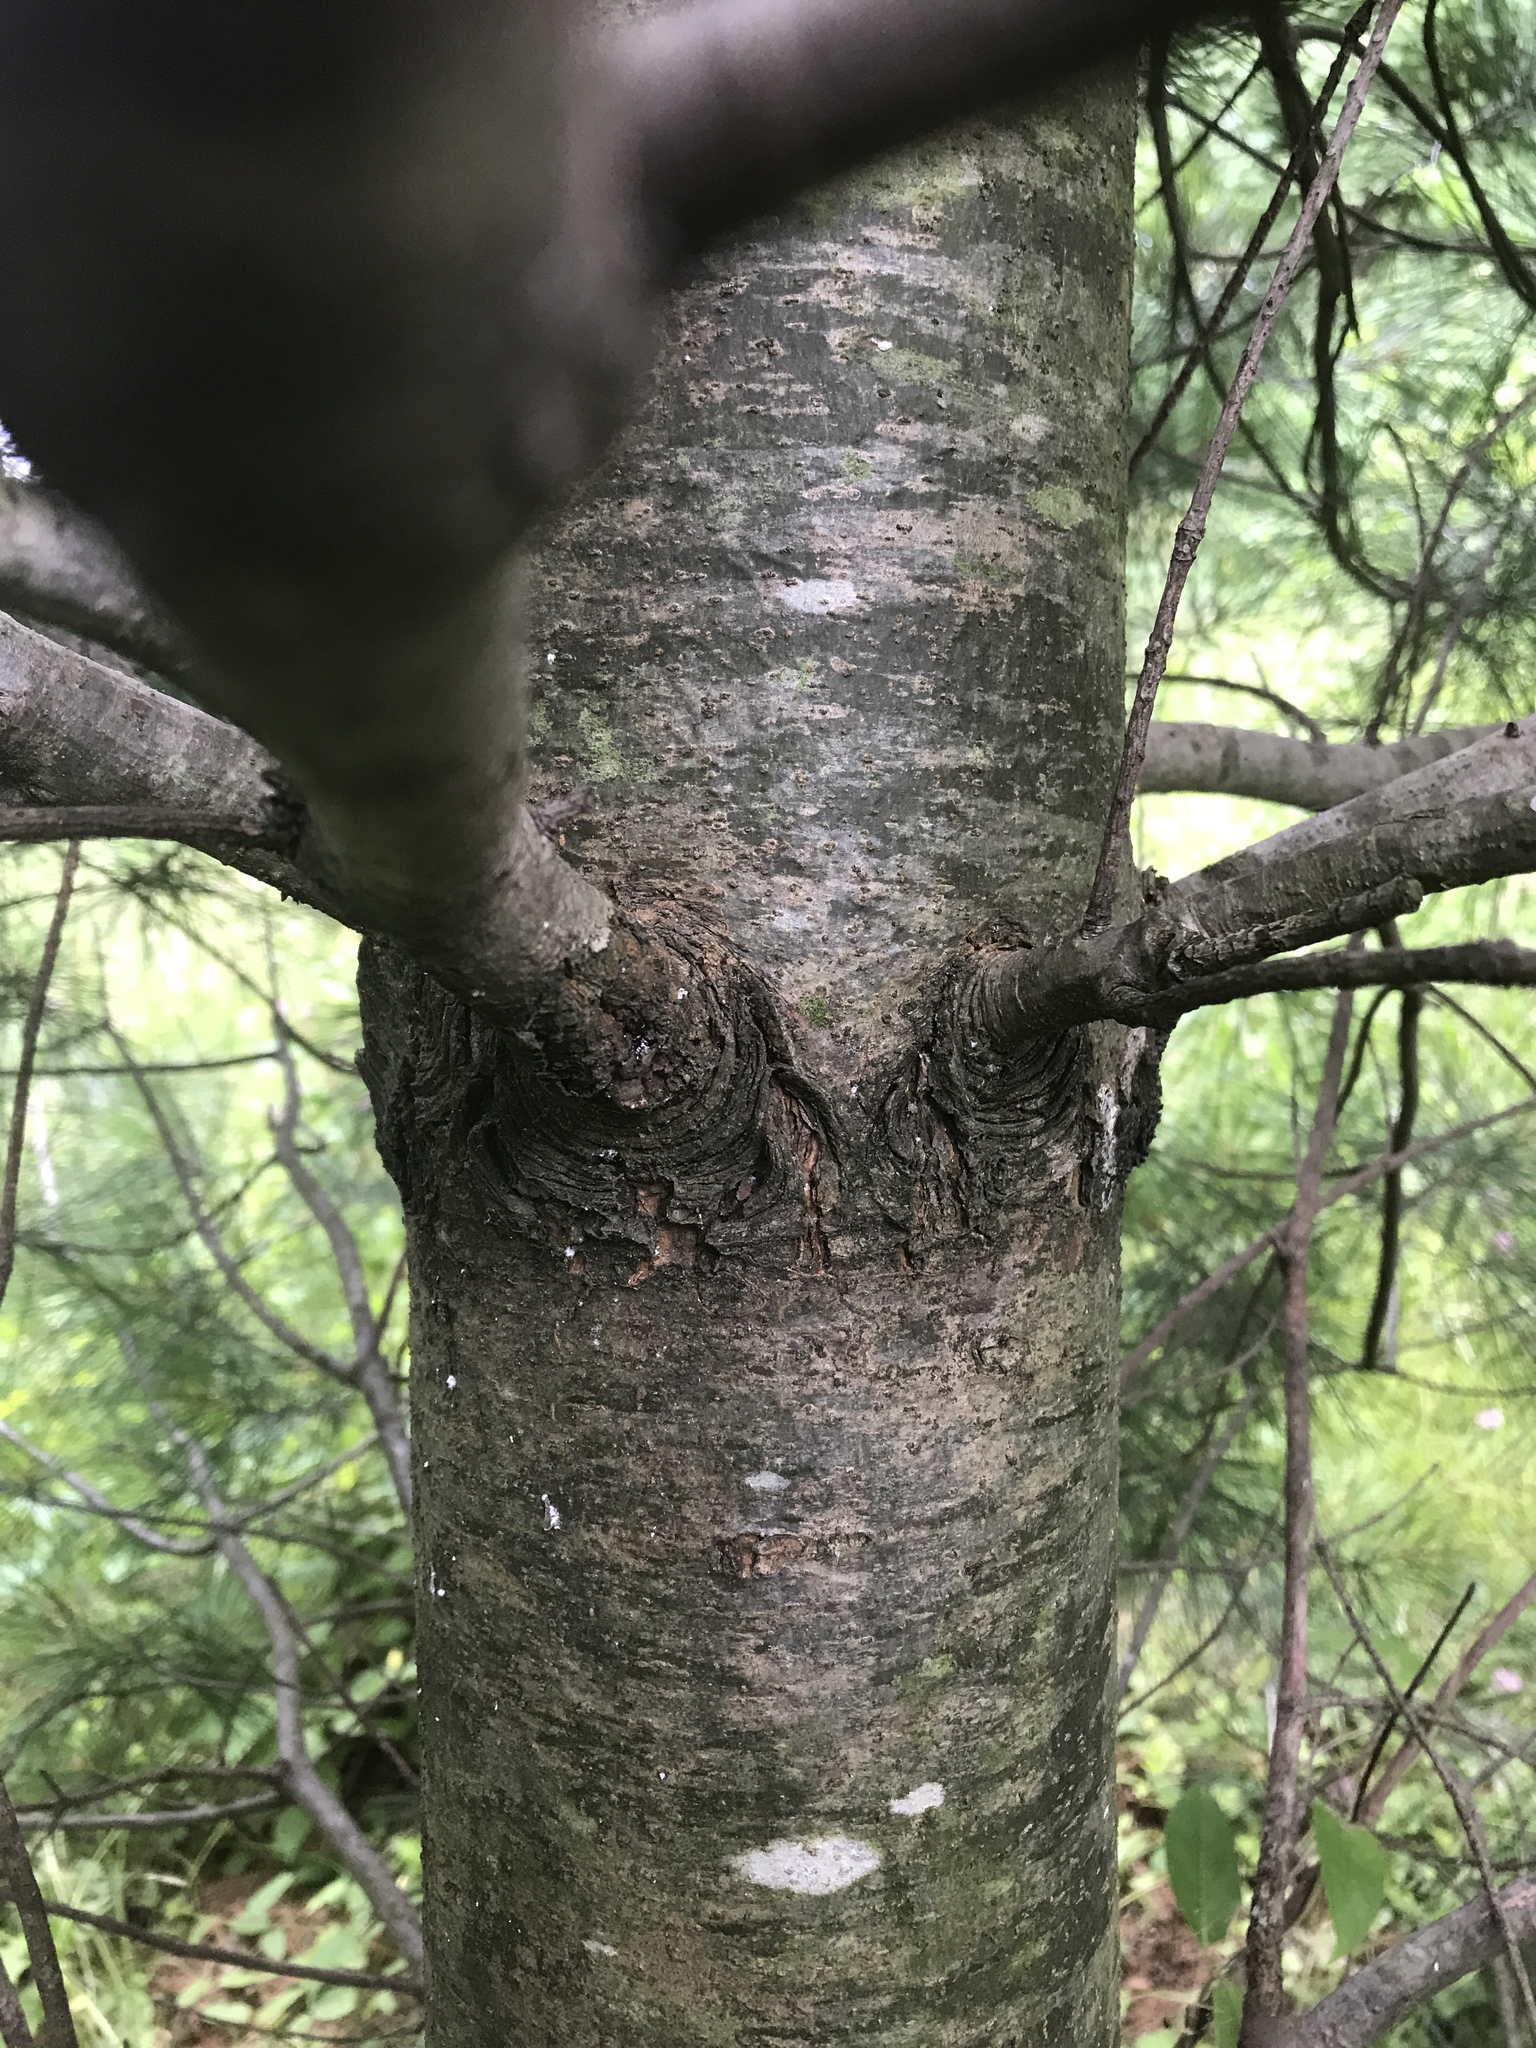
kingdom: Plantae
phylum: Tracheophyta
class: Pinopsida
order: Pinales
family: Pinaceae
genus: Pinus
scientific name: Pinus strobus
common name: Weymouth pine
